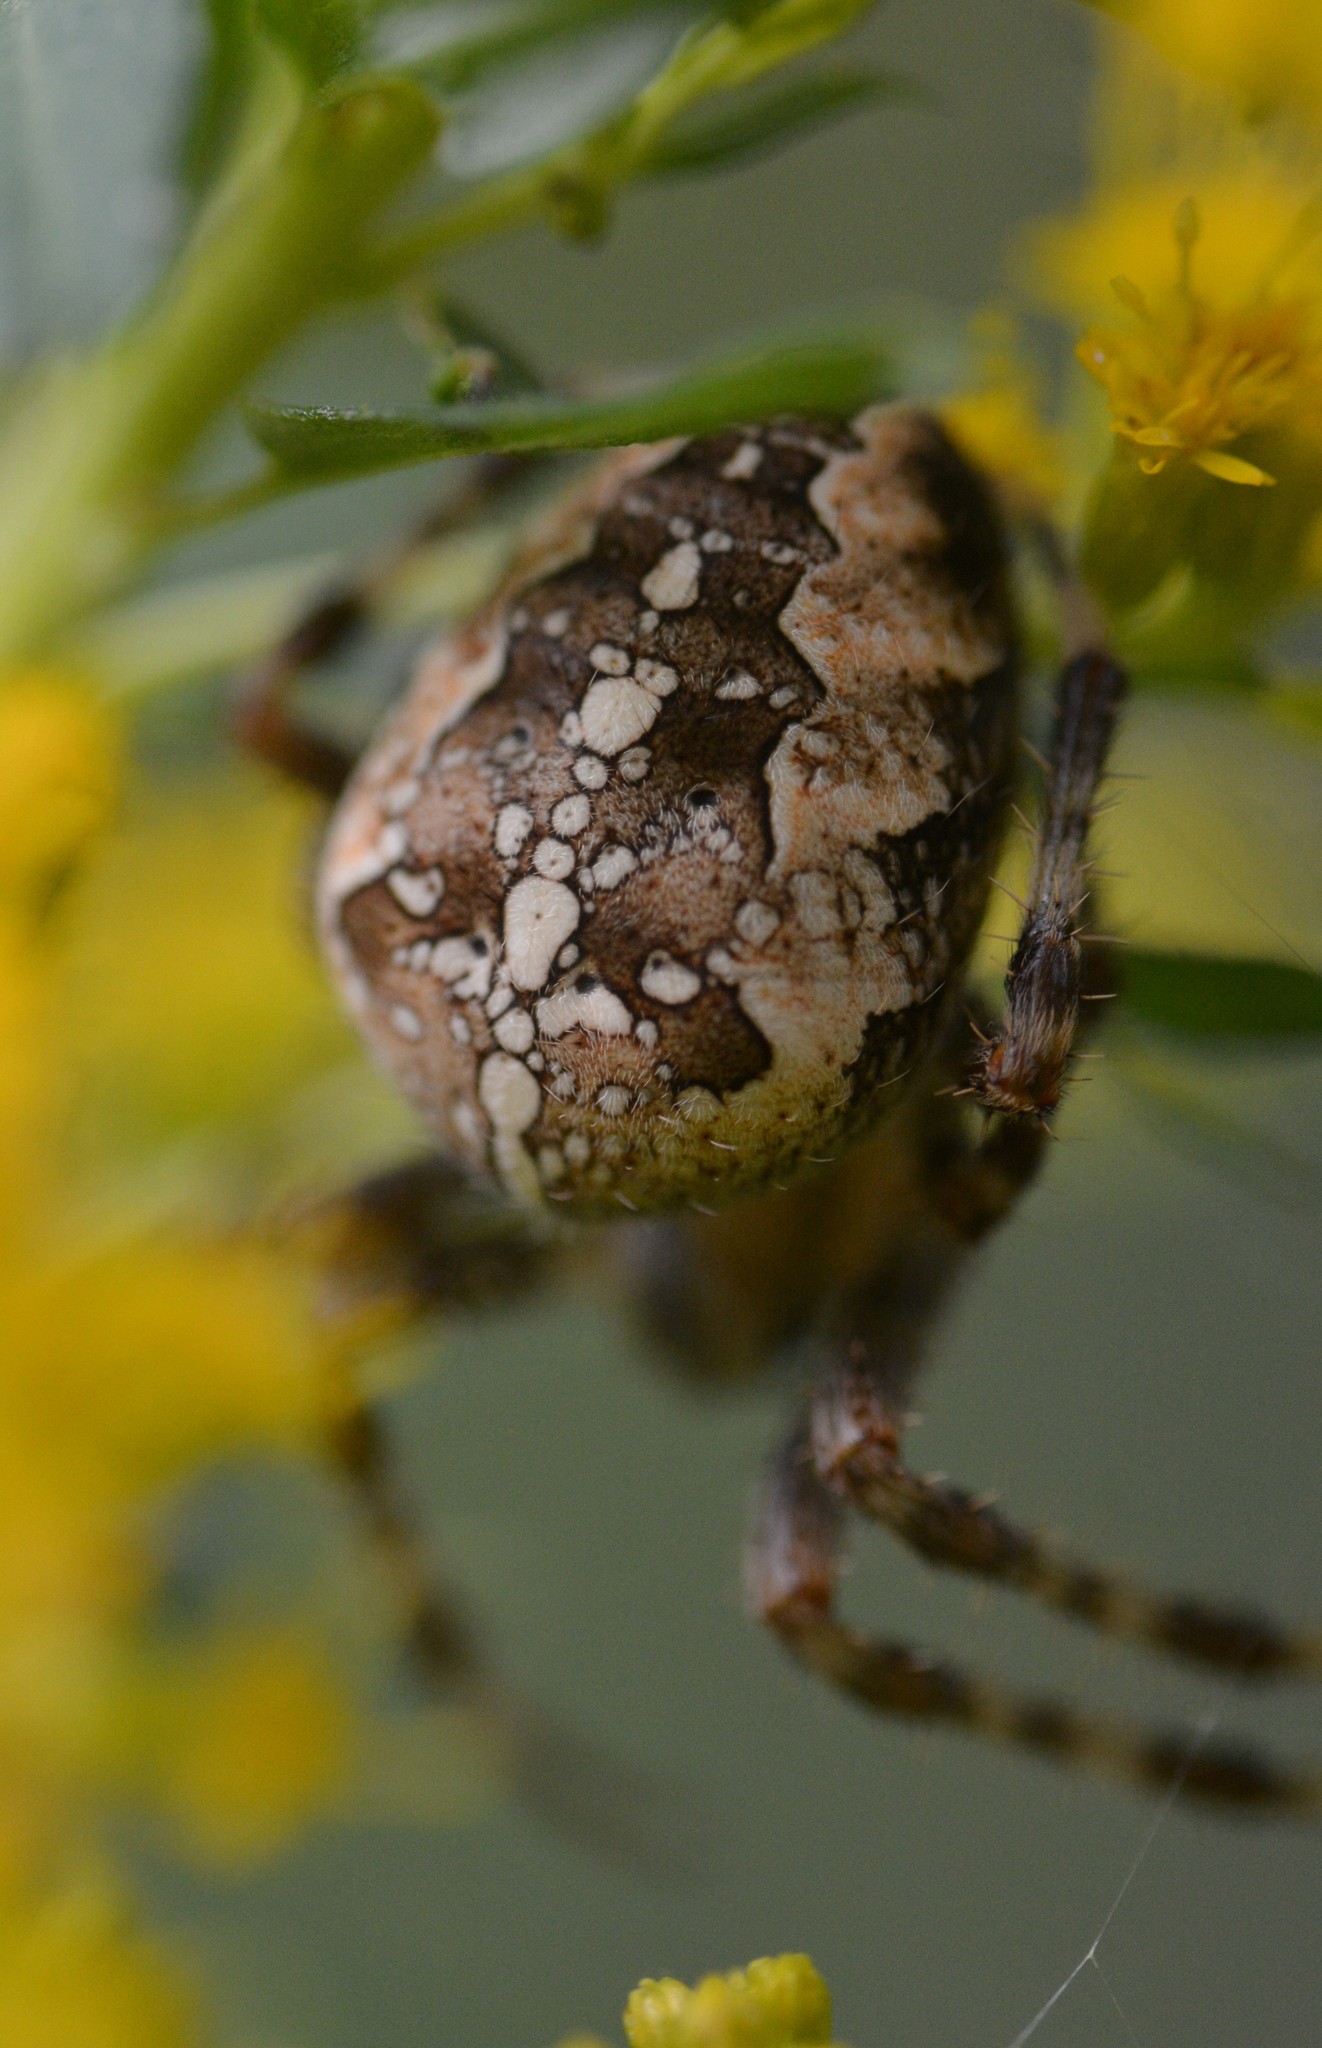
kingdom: Animalia
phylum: Arthropoda
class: Arachnida
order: Araneae
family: Araneidae
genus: Araneus
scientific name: Araneus diadematus
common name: Cross orbweaver
